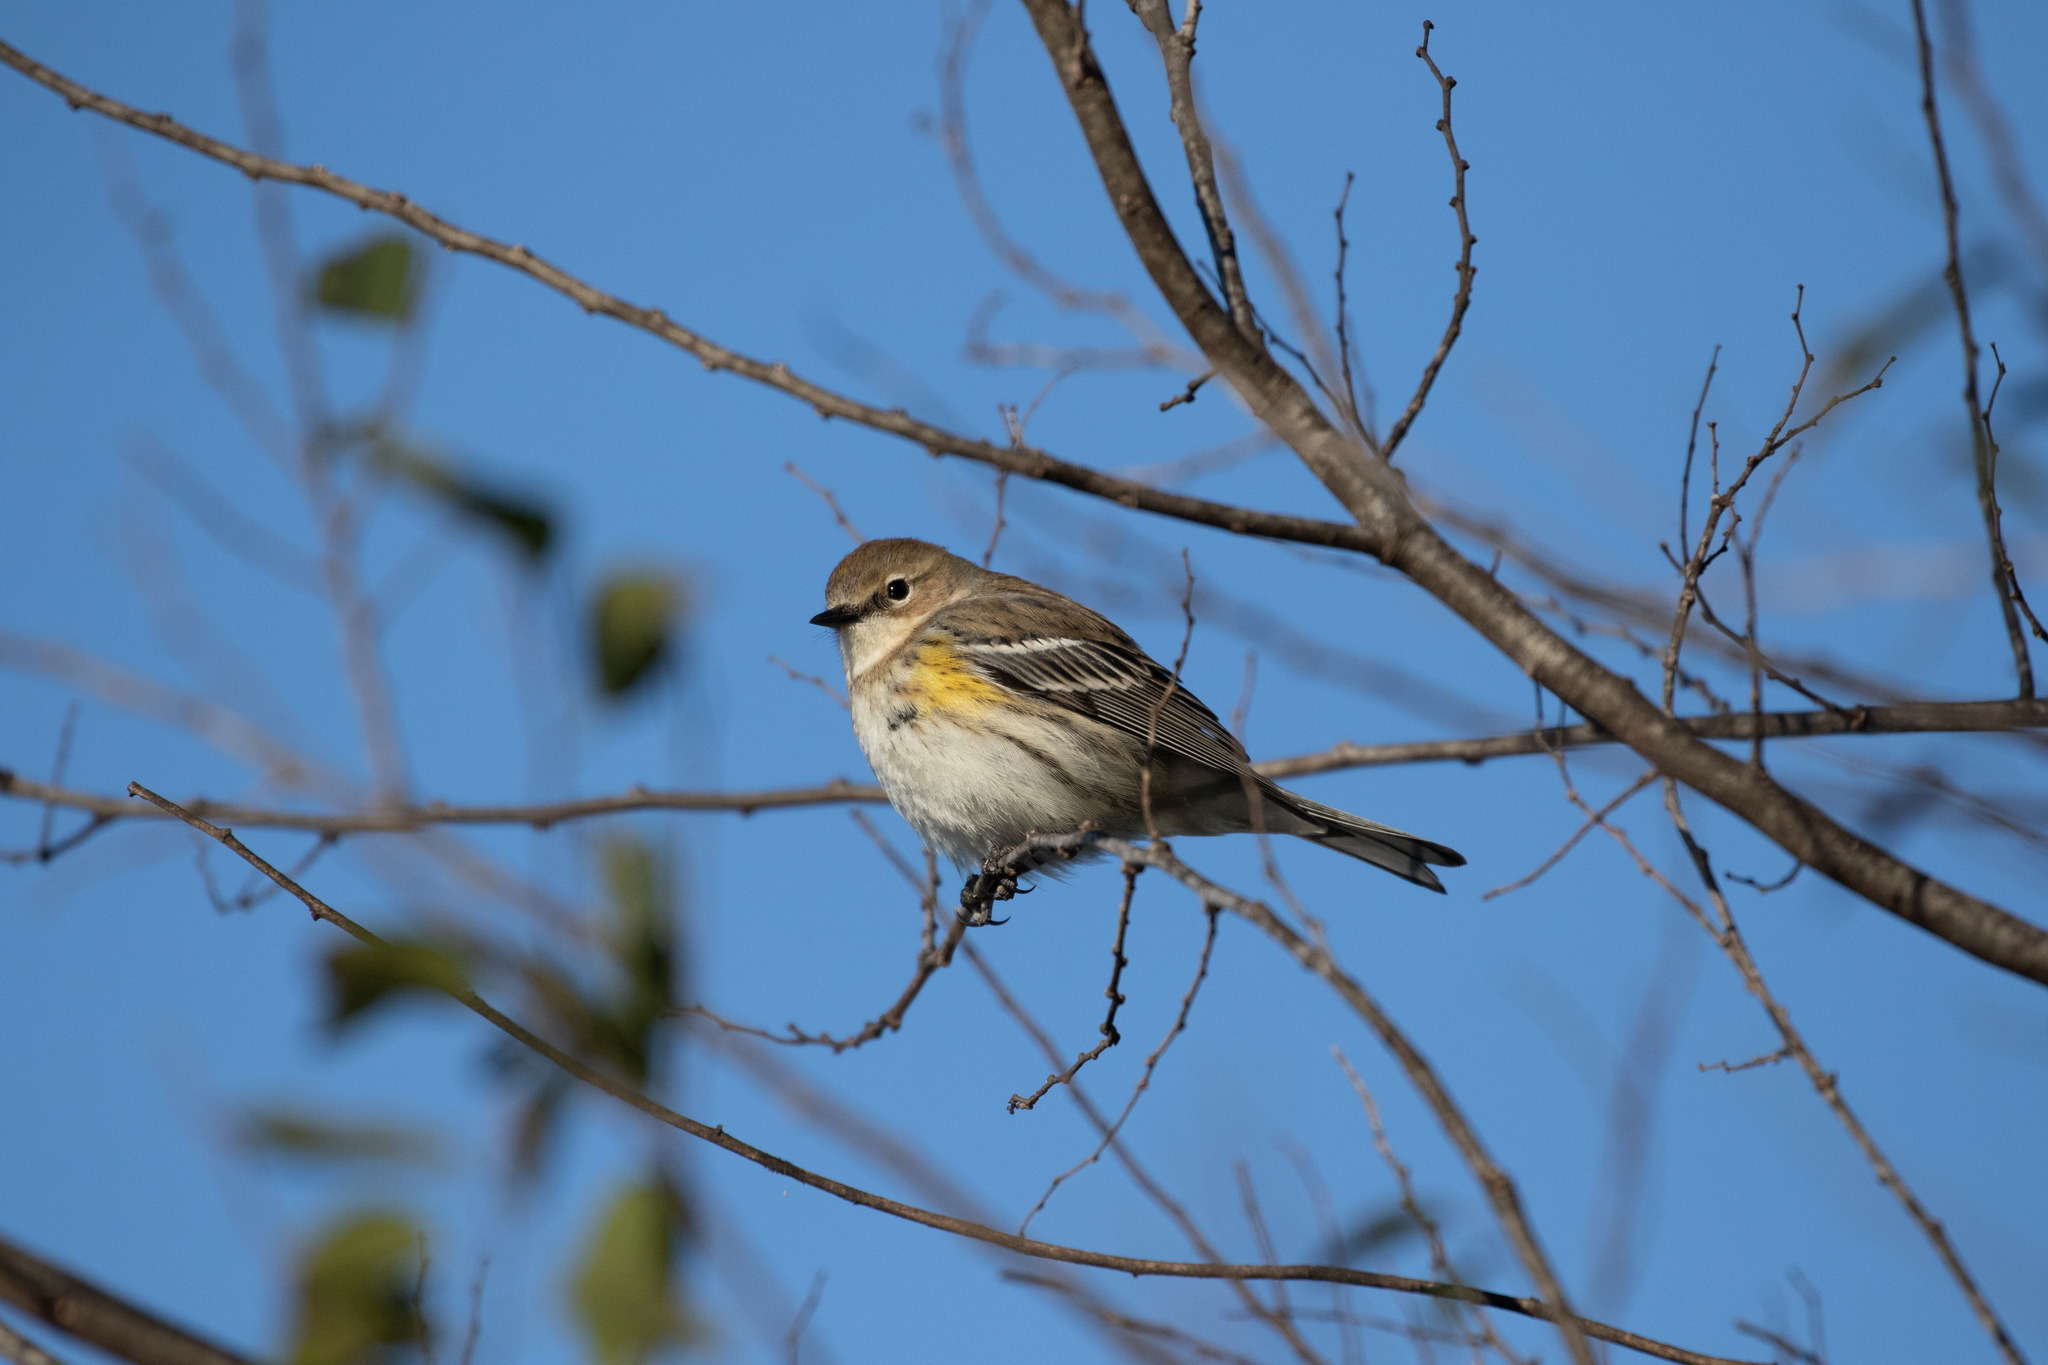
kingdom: Animalia
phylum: Chordata
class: Aves
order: Passeriformes
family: Parulidae
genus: Setophaga
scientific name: Setophaga coronata
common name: Myrtle warbler
